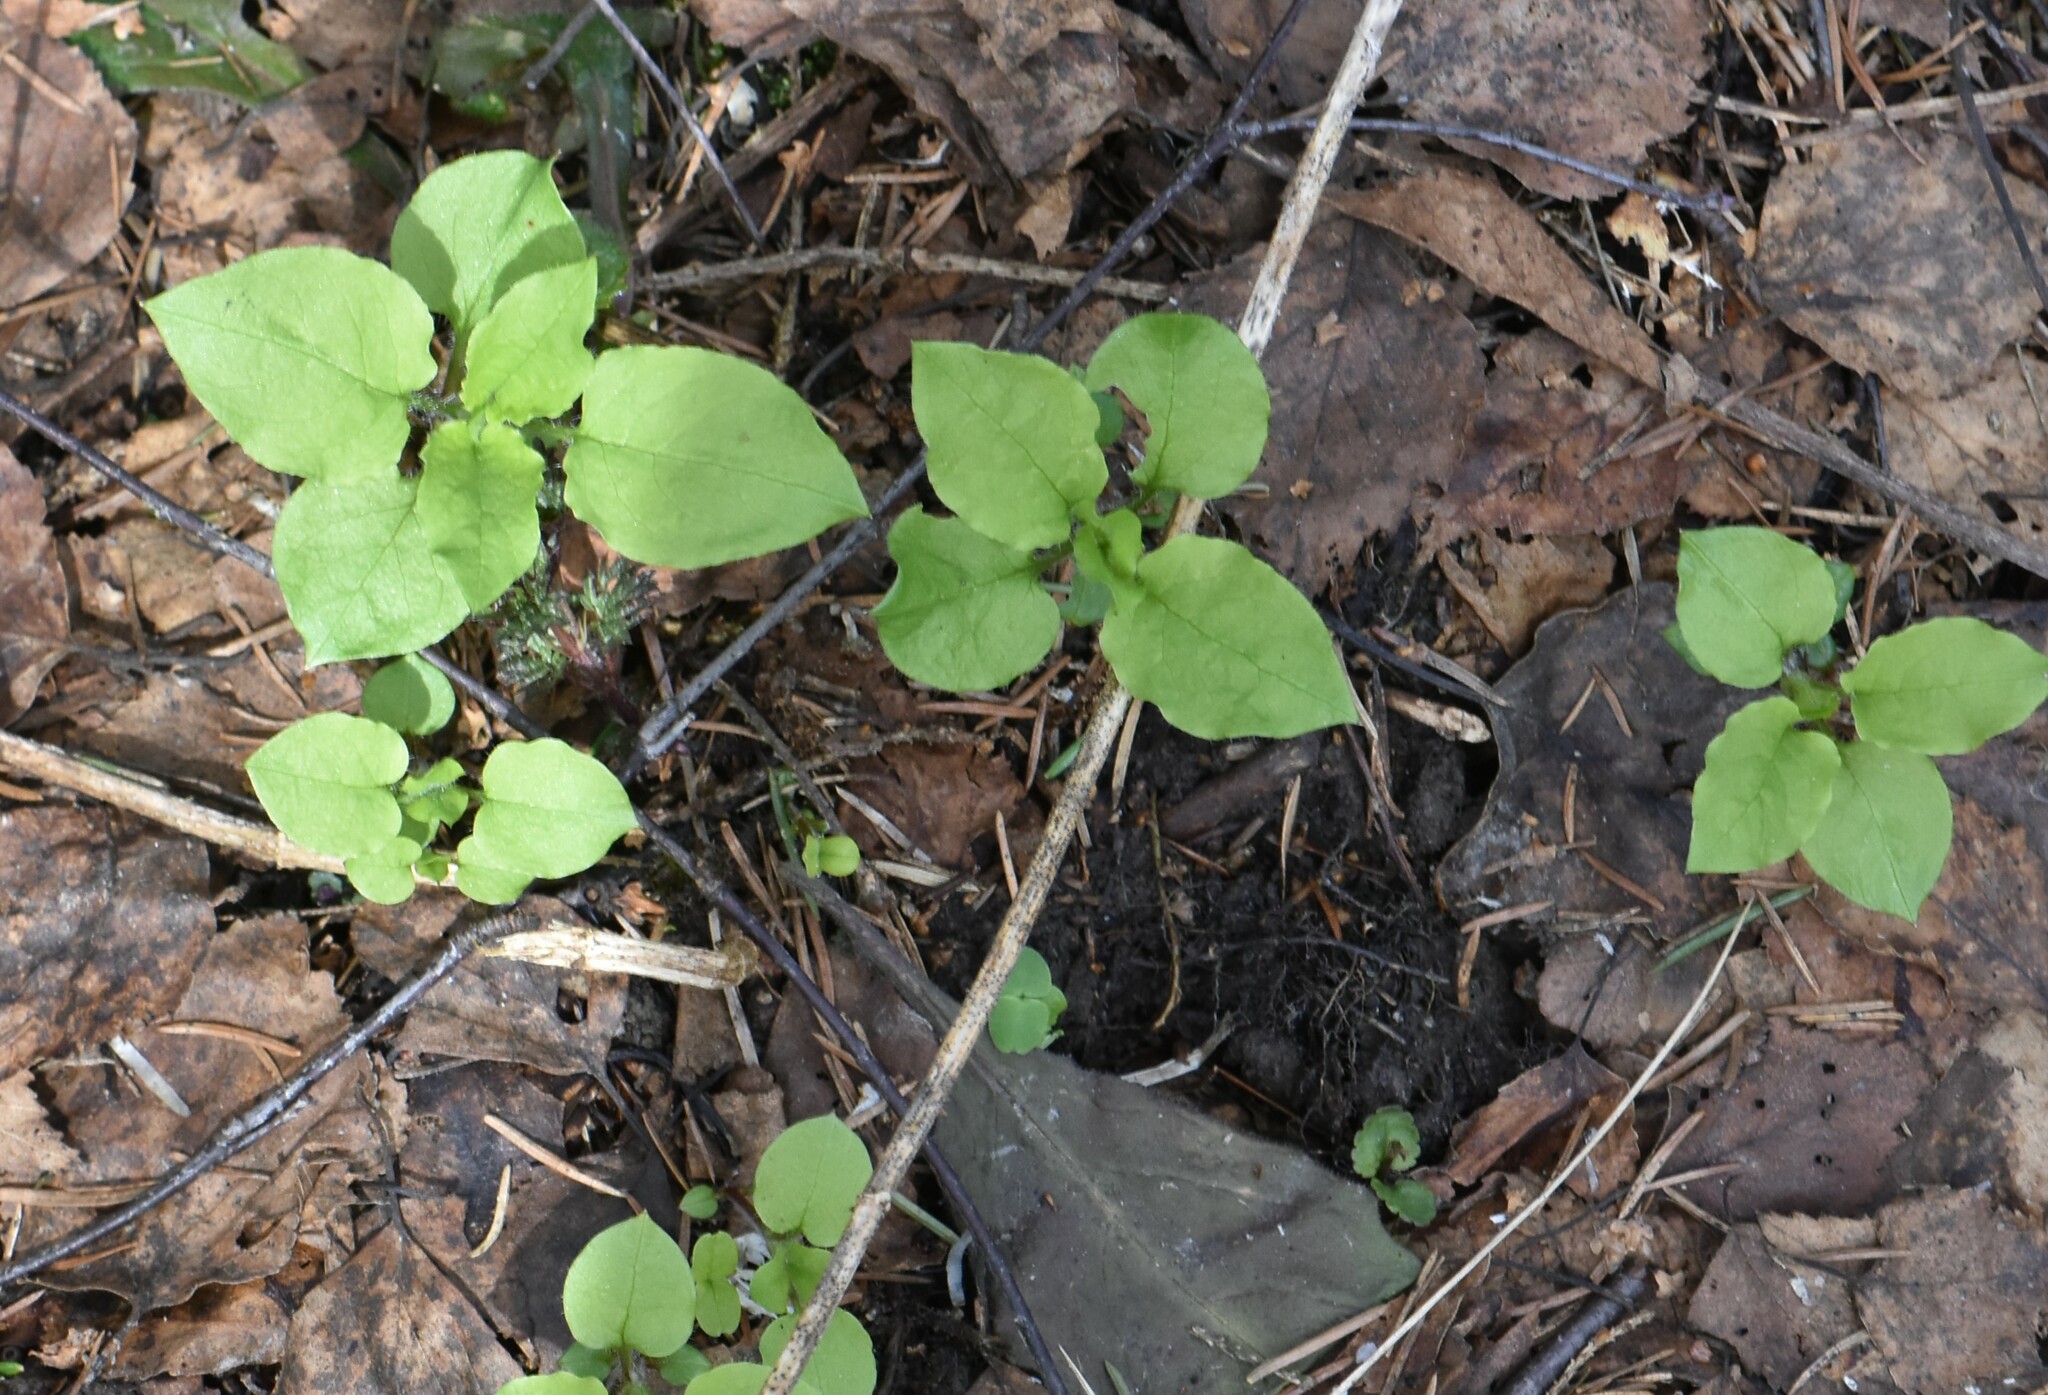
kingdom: Plantae
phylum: Tracheophyta
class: Magnoliopsida
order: Caryophyllales
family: Caryophyllaceae
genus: Stellaria
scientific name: Stellaria nemorum
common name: Wood stitchwort
